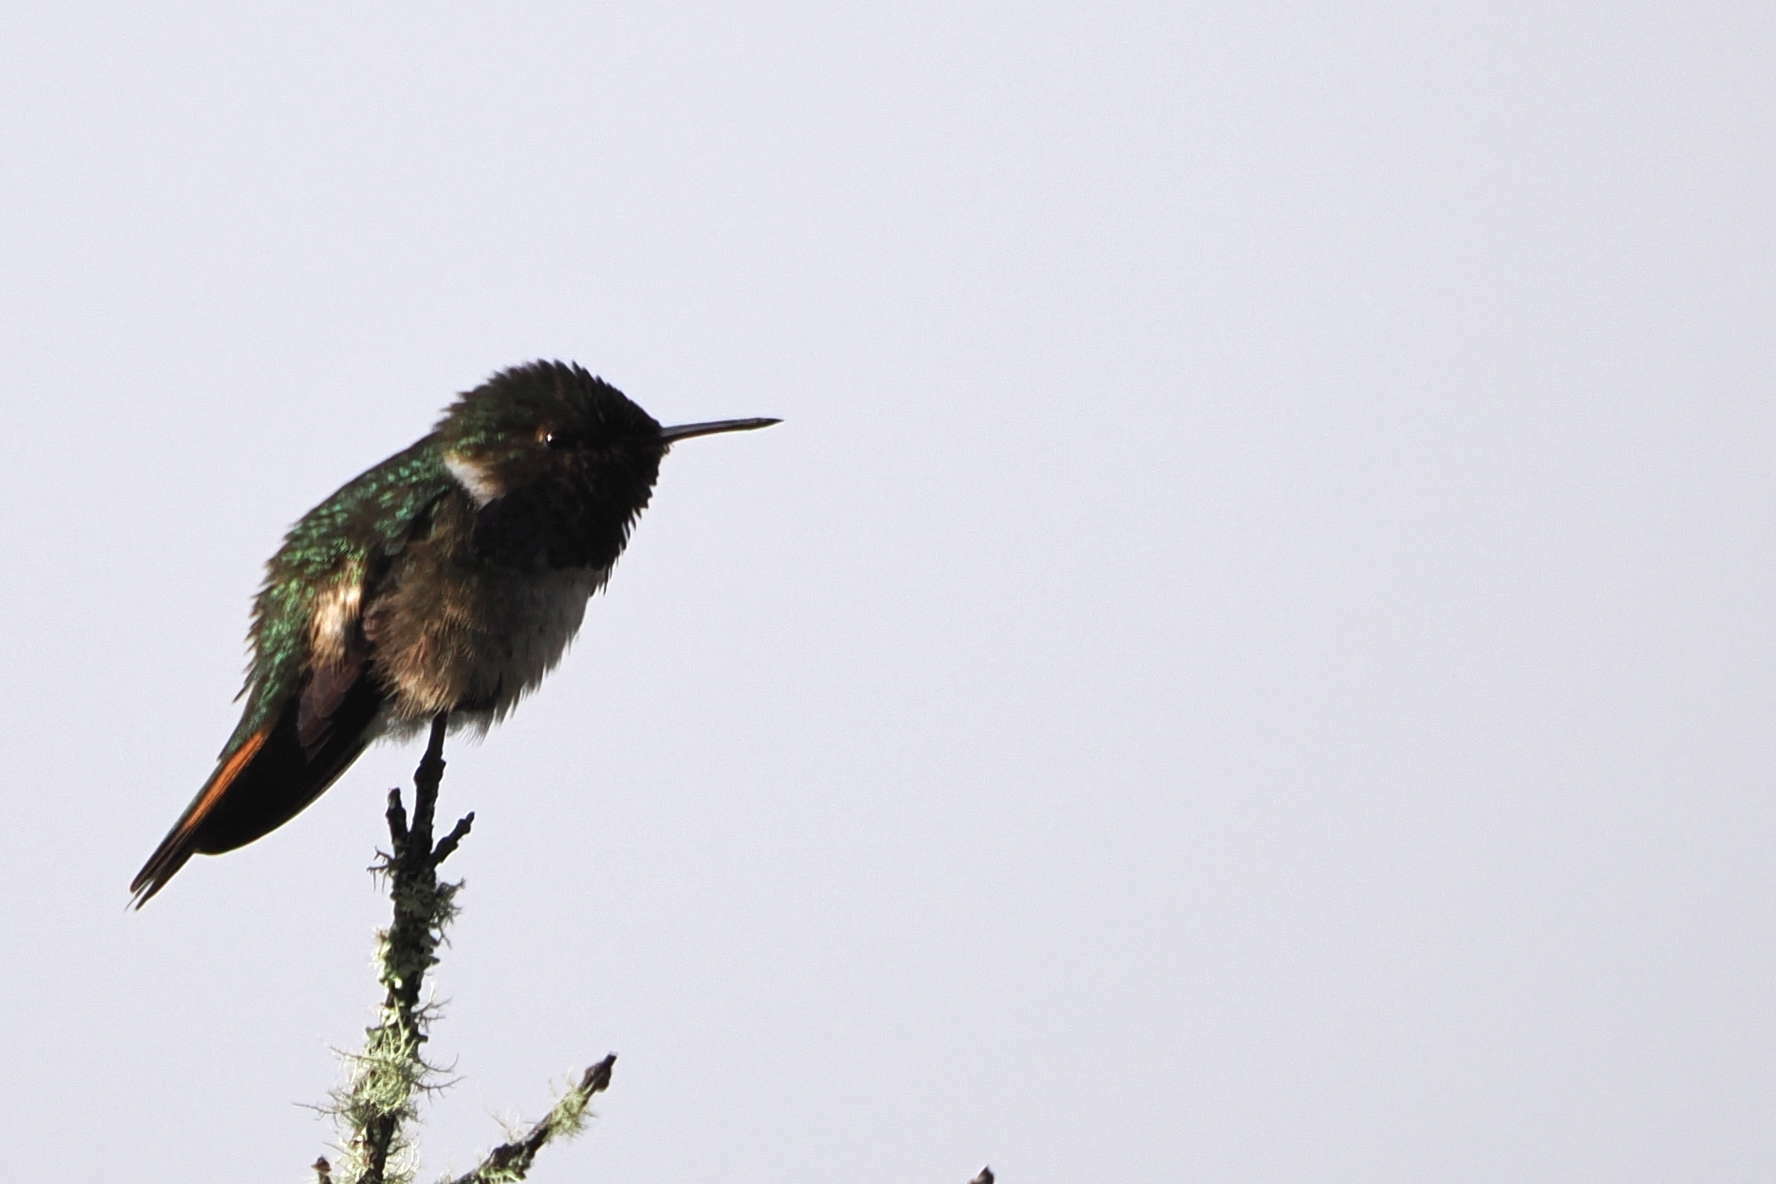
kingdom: Animalia
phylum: Chordata
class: Aves
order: Apodiformes
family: Trochilidae
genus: Selasphorus
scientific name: Selasphorus flammula
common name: Volcano hummingbird
